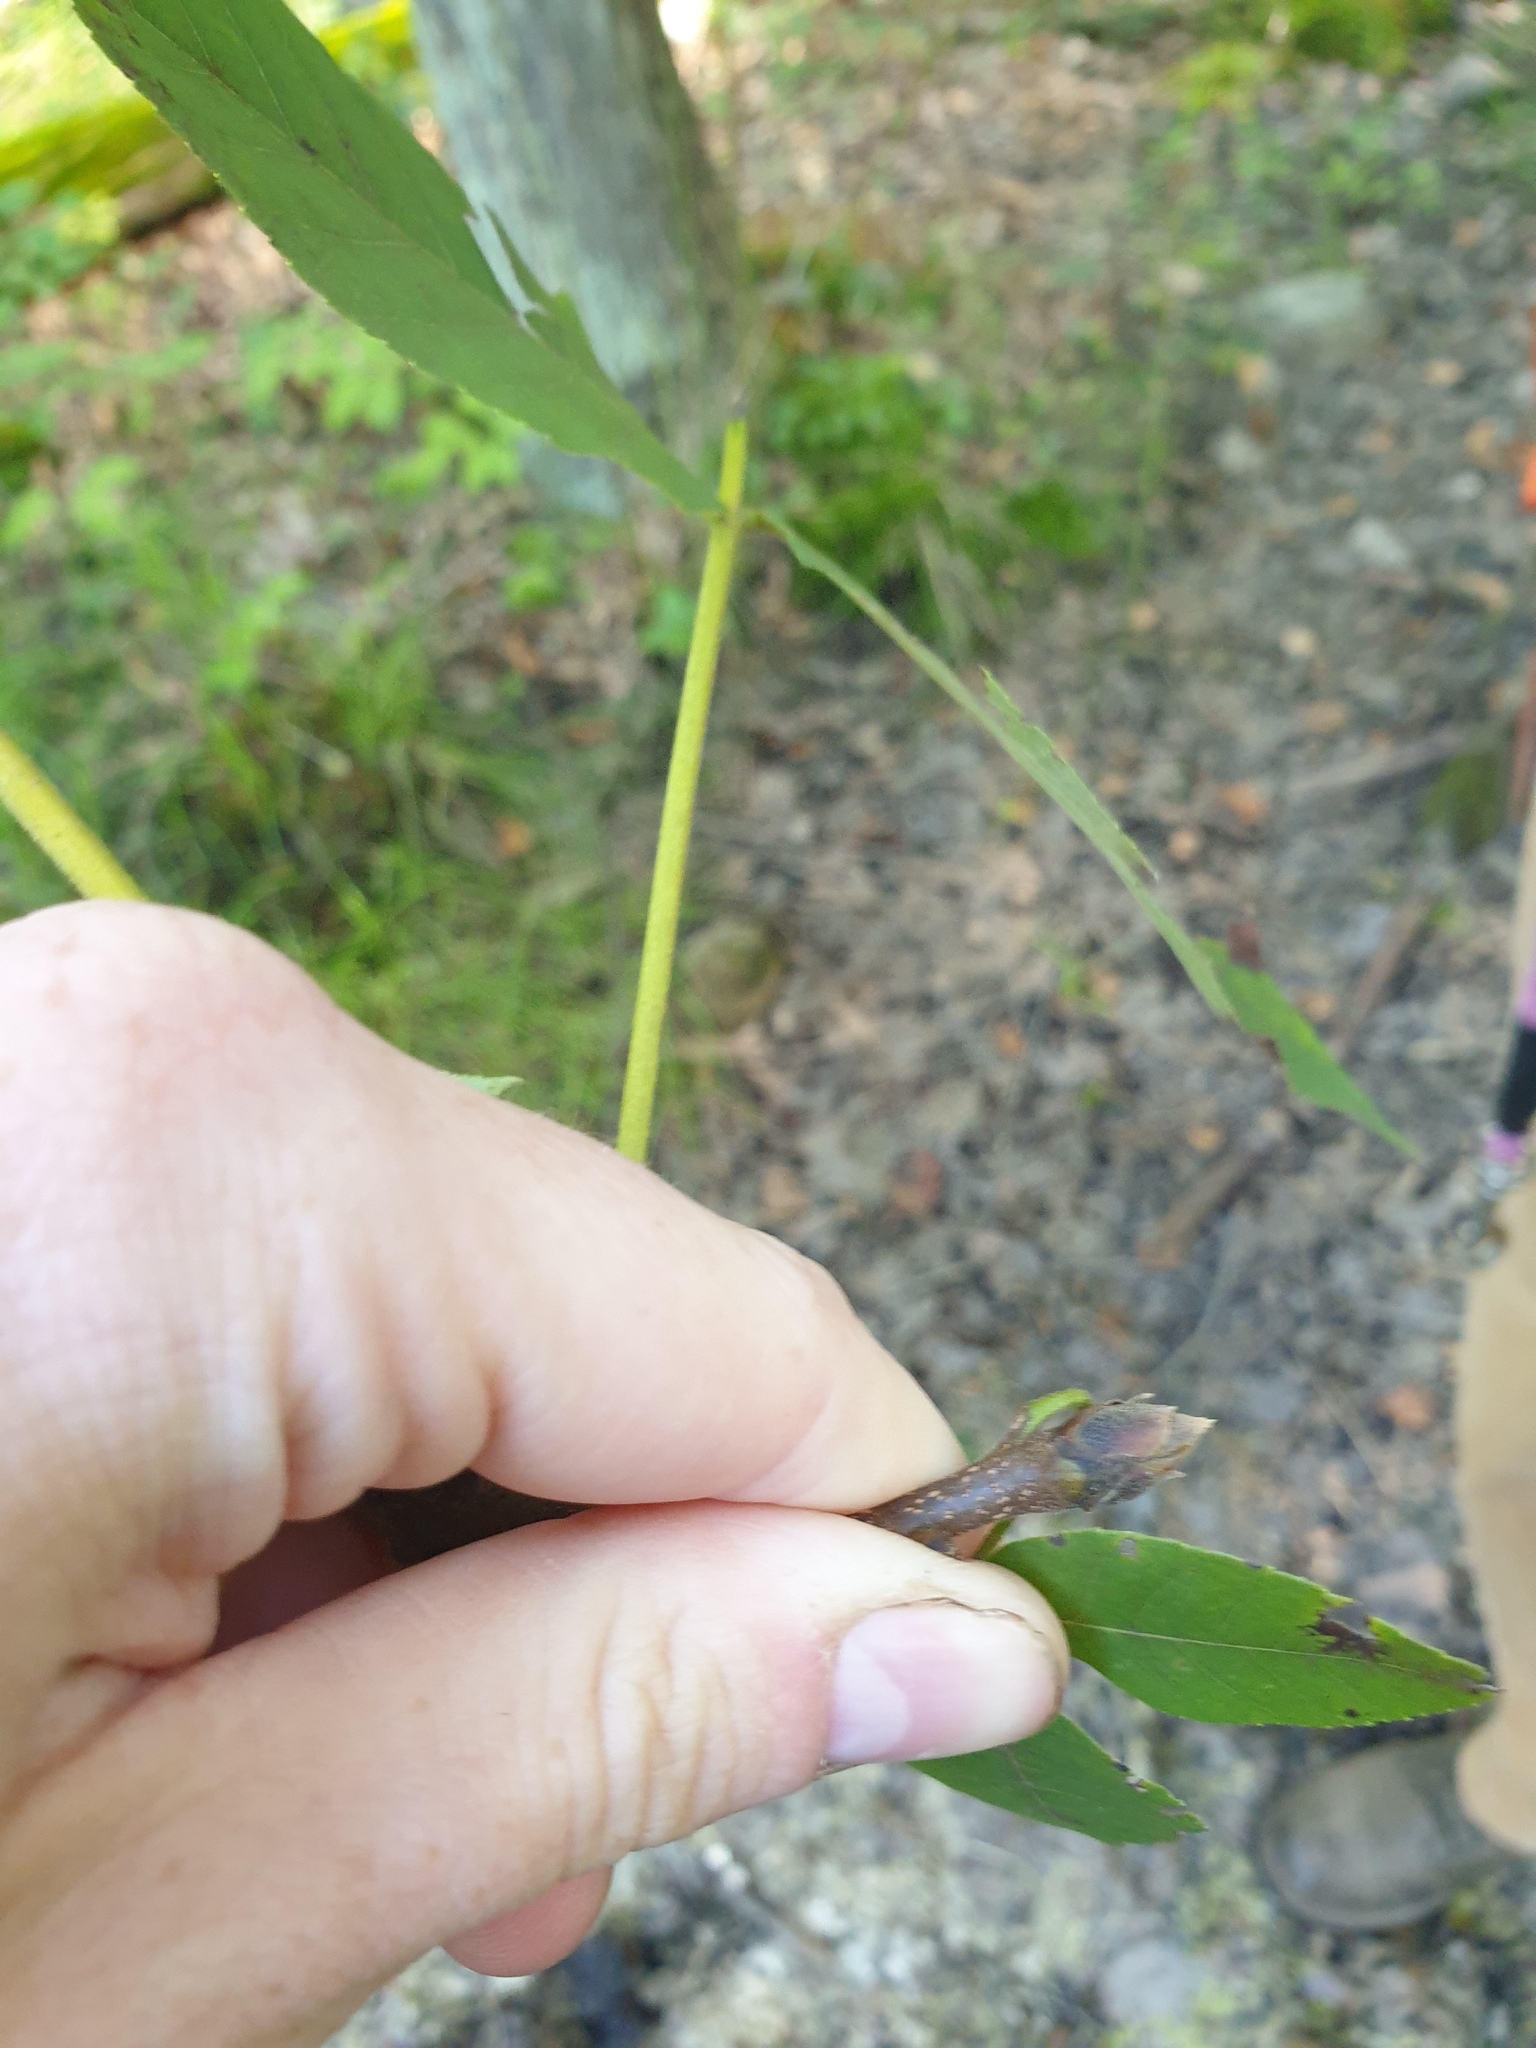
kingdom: Plantae
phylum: Tracheophyta
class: Magnoliopsida
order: Fagales
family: Juglandaceae
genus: Carya
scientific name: Carya ovata
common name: Shagbark hickory
